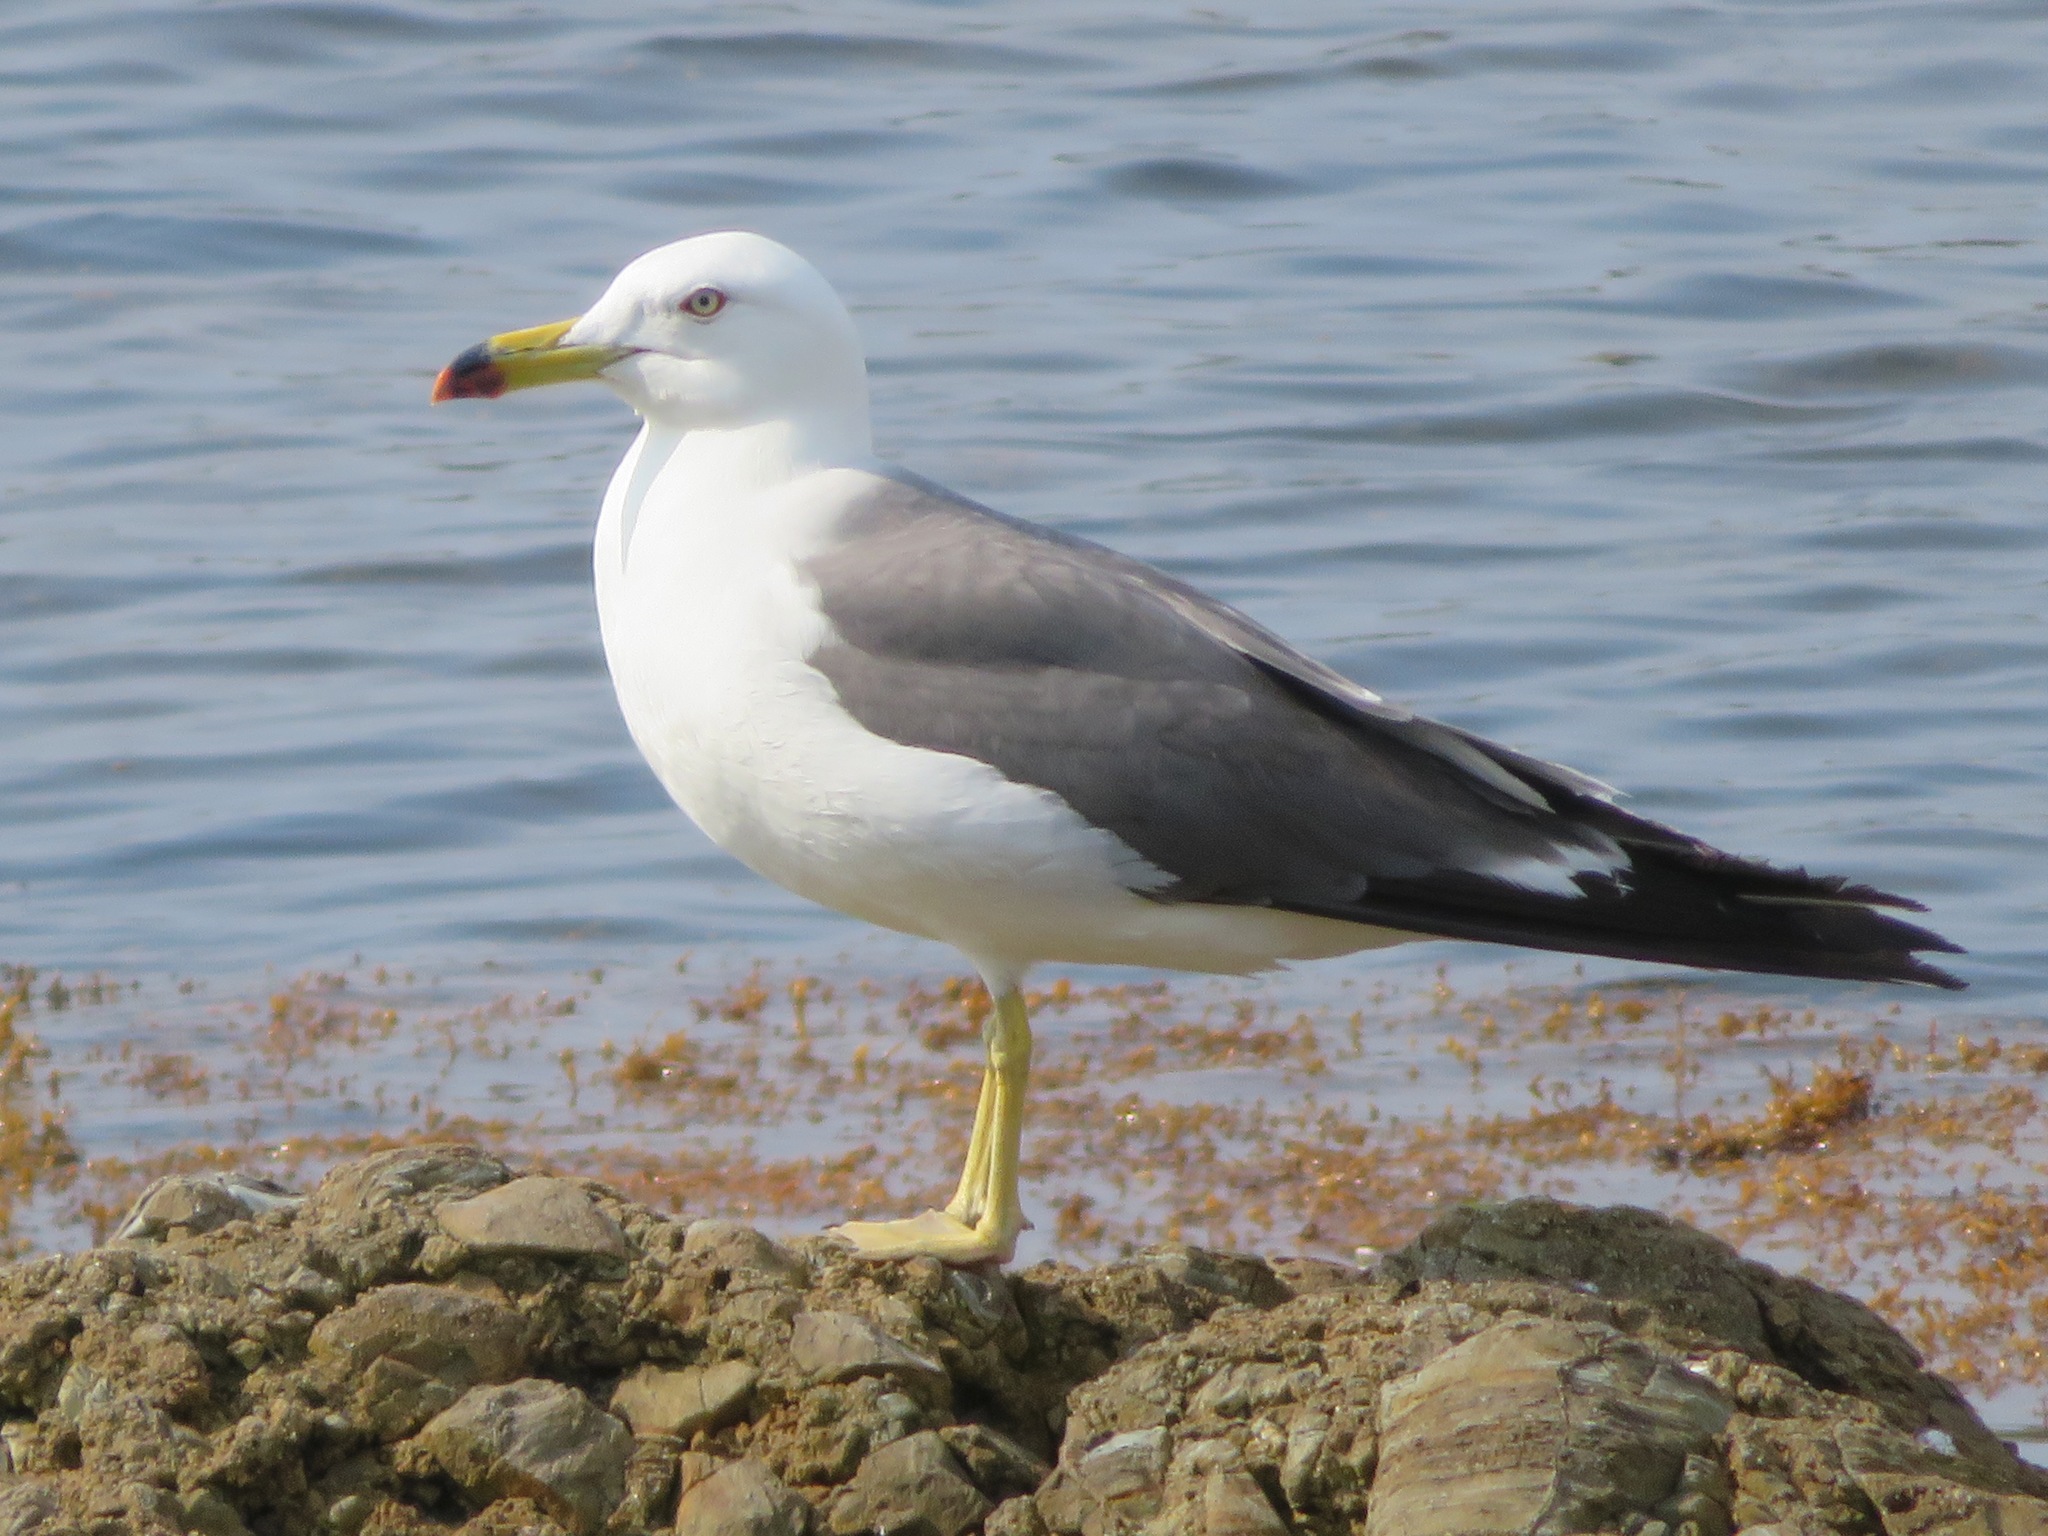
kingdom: Animalia
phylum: Chordata
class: Aves
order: Charadriiformes
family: Laridae
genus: Larus
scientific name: Larus crassirostris
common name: Black-tailed gull
